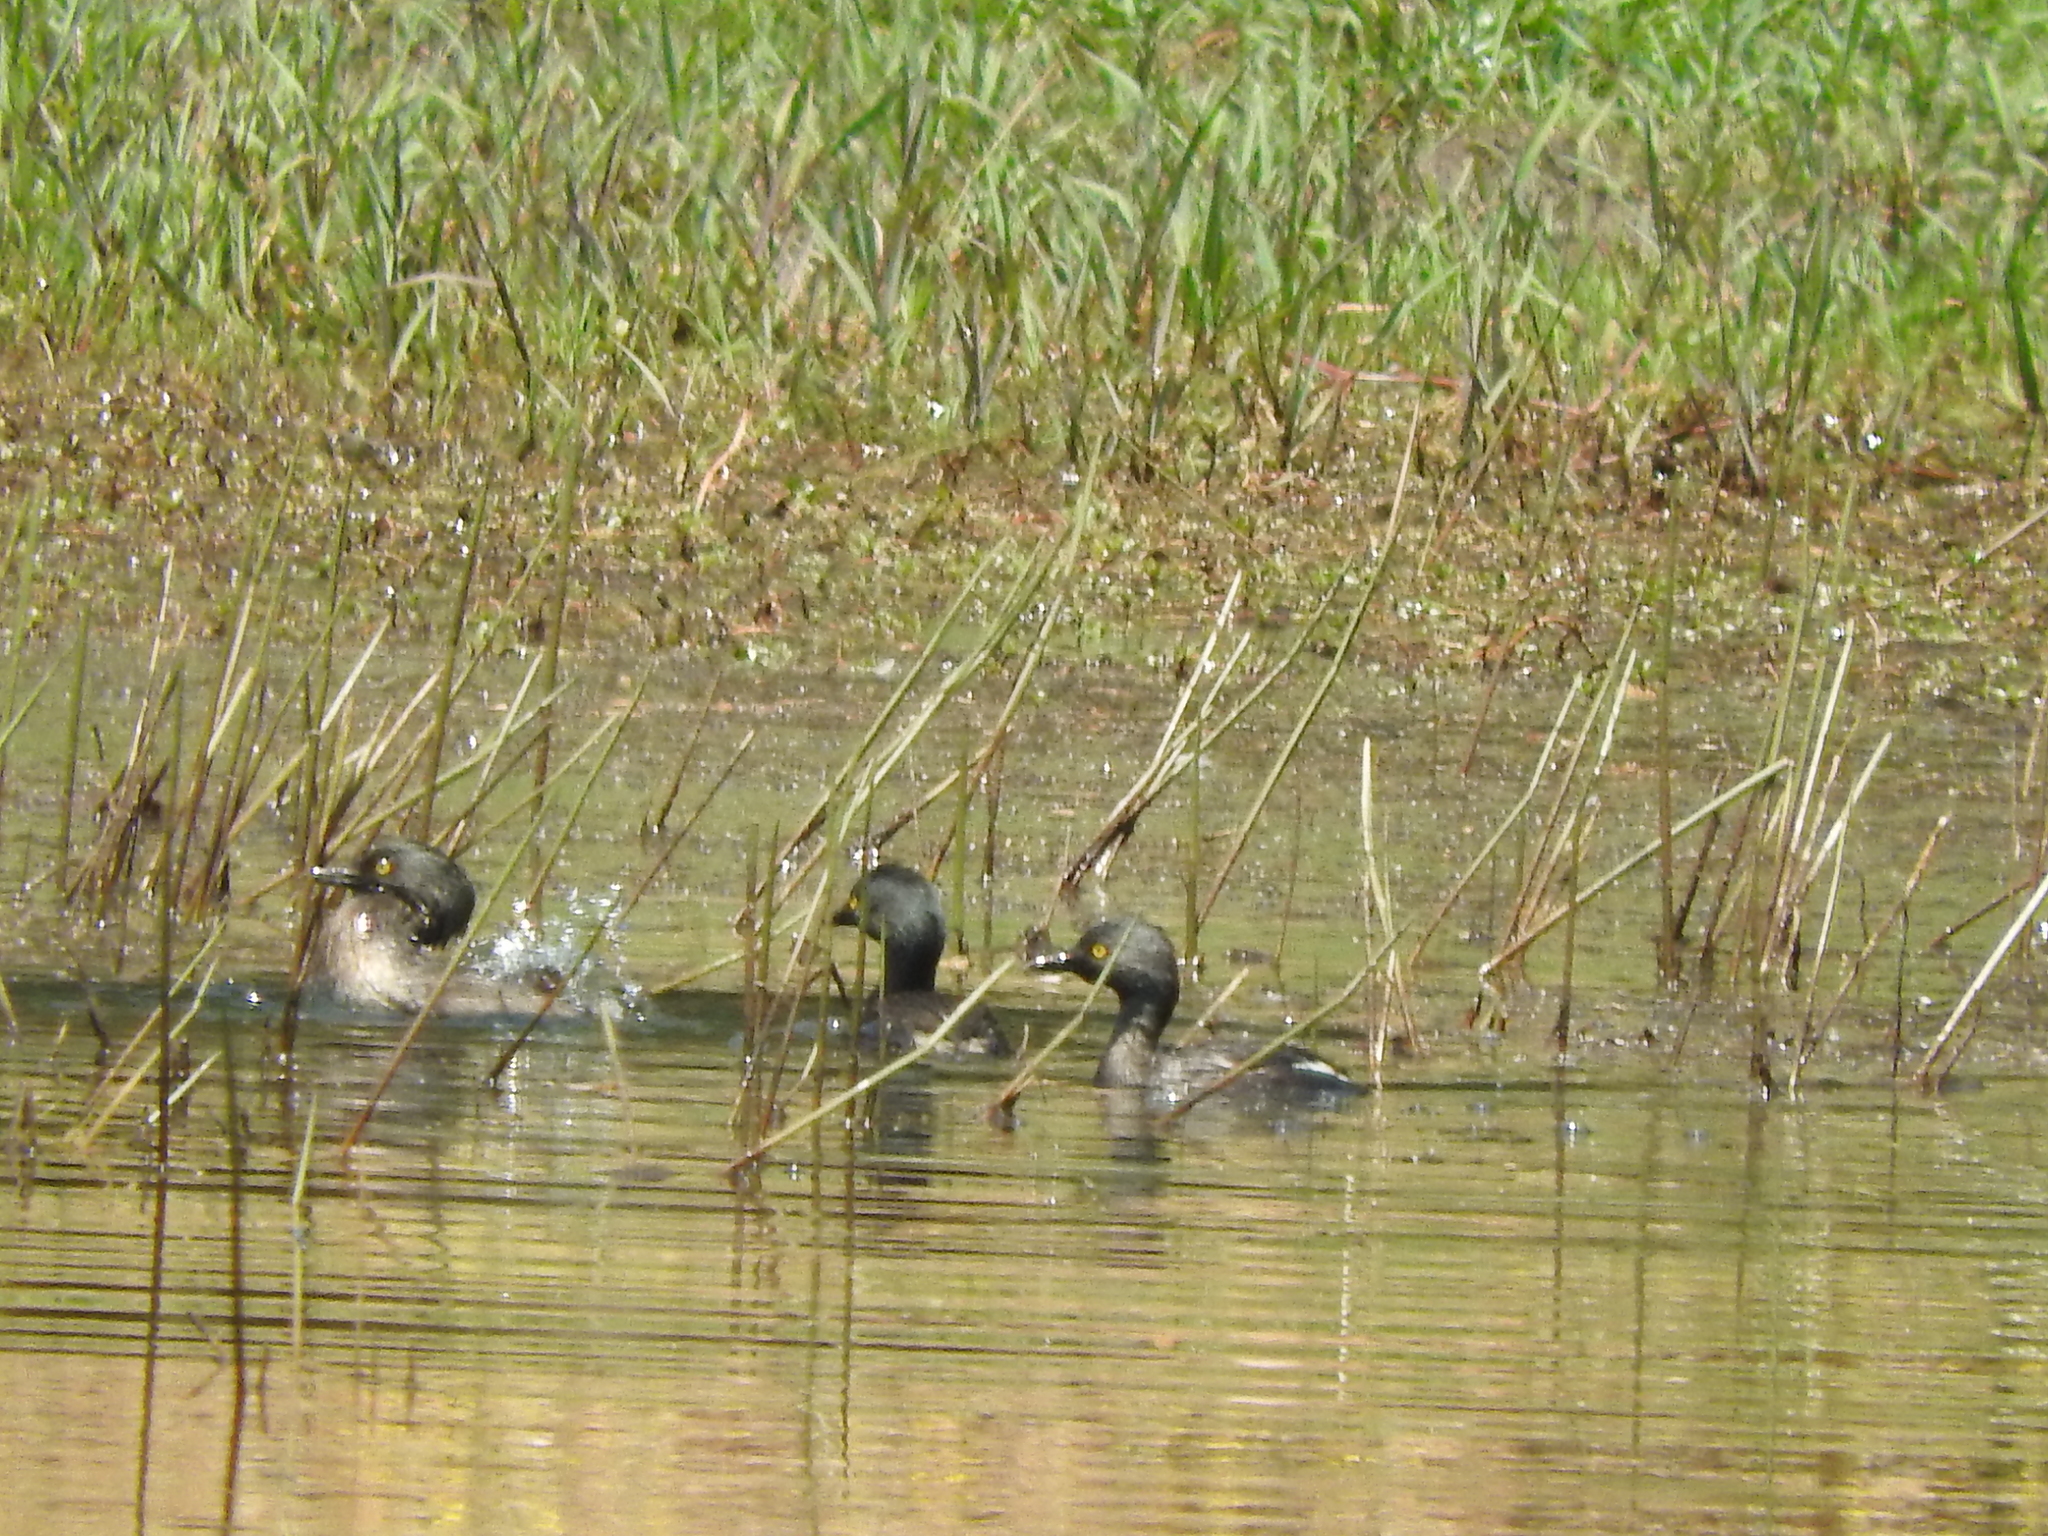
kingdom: Animalia
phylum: Chordata
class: Aves
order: Podicipediformes
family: Podicipedidae
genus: Tachybaptus
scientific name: Tachybaptus dominicus
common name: Least grebe
